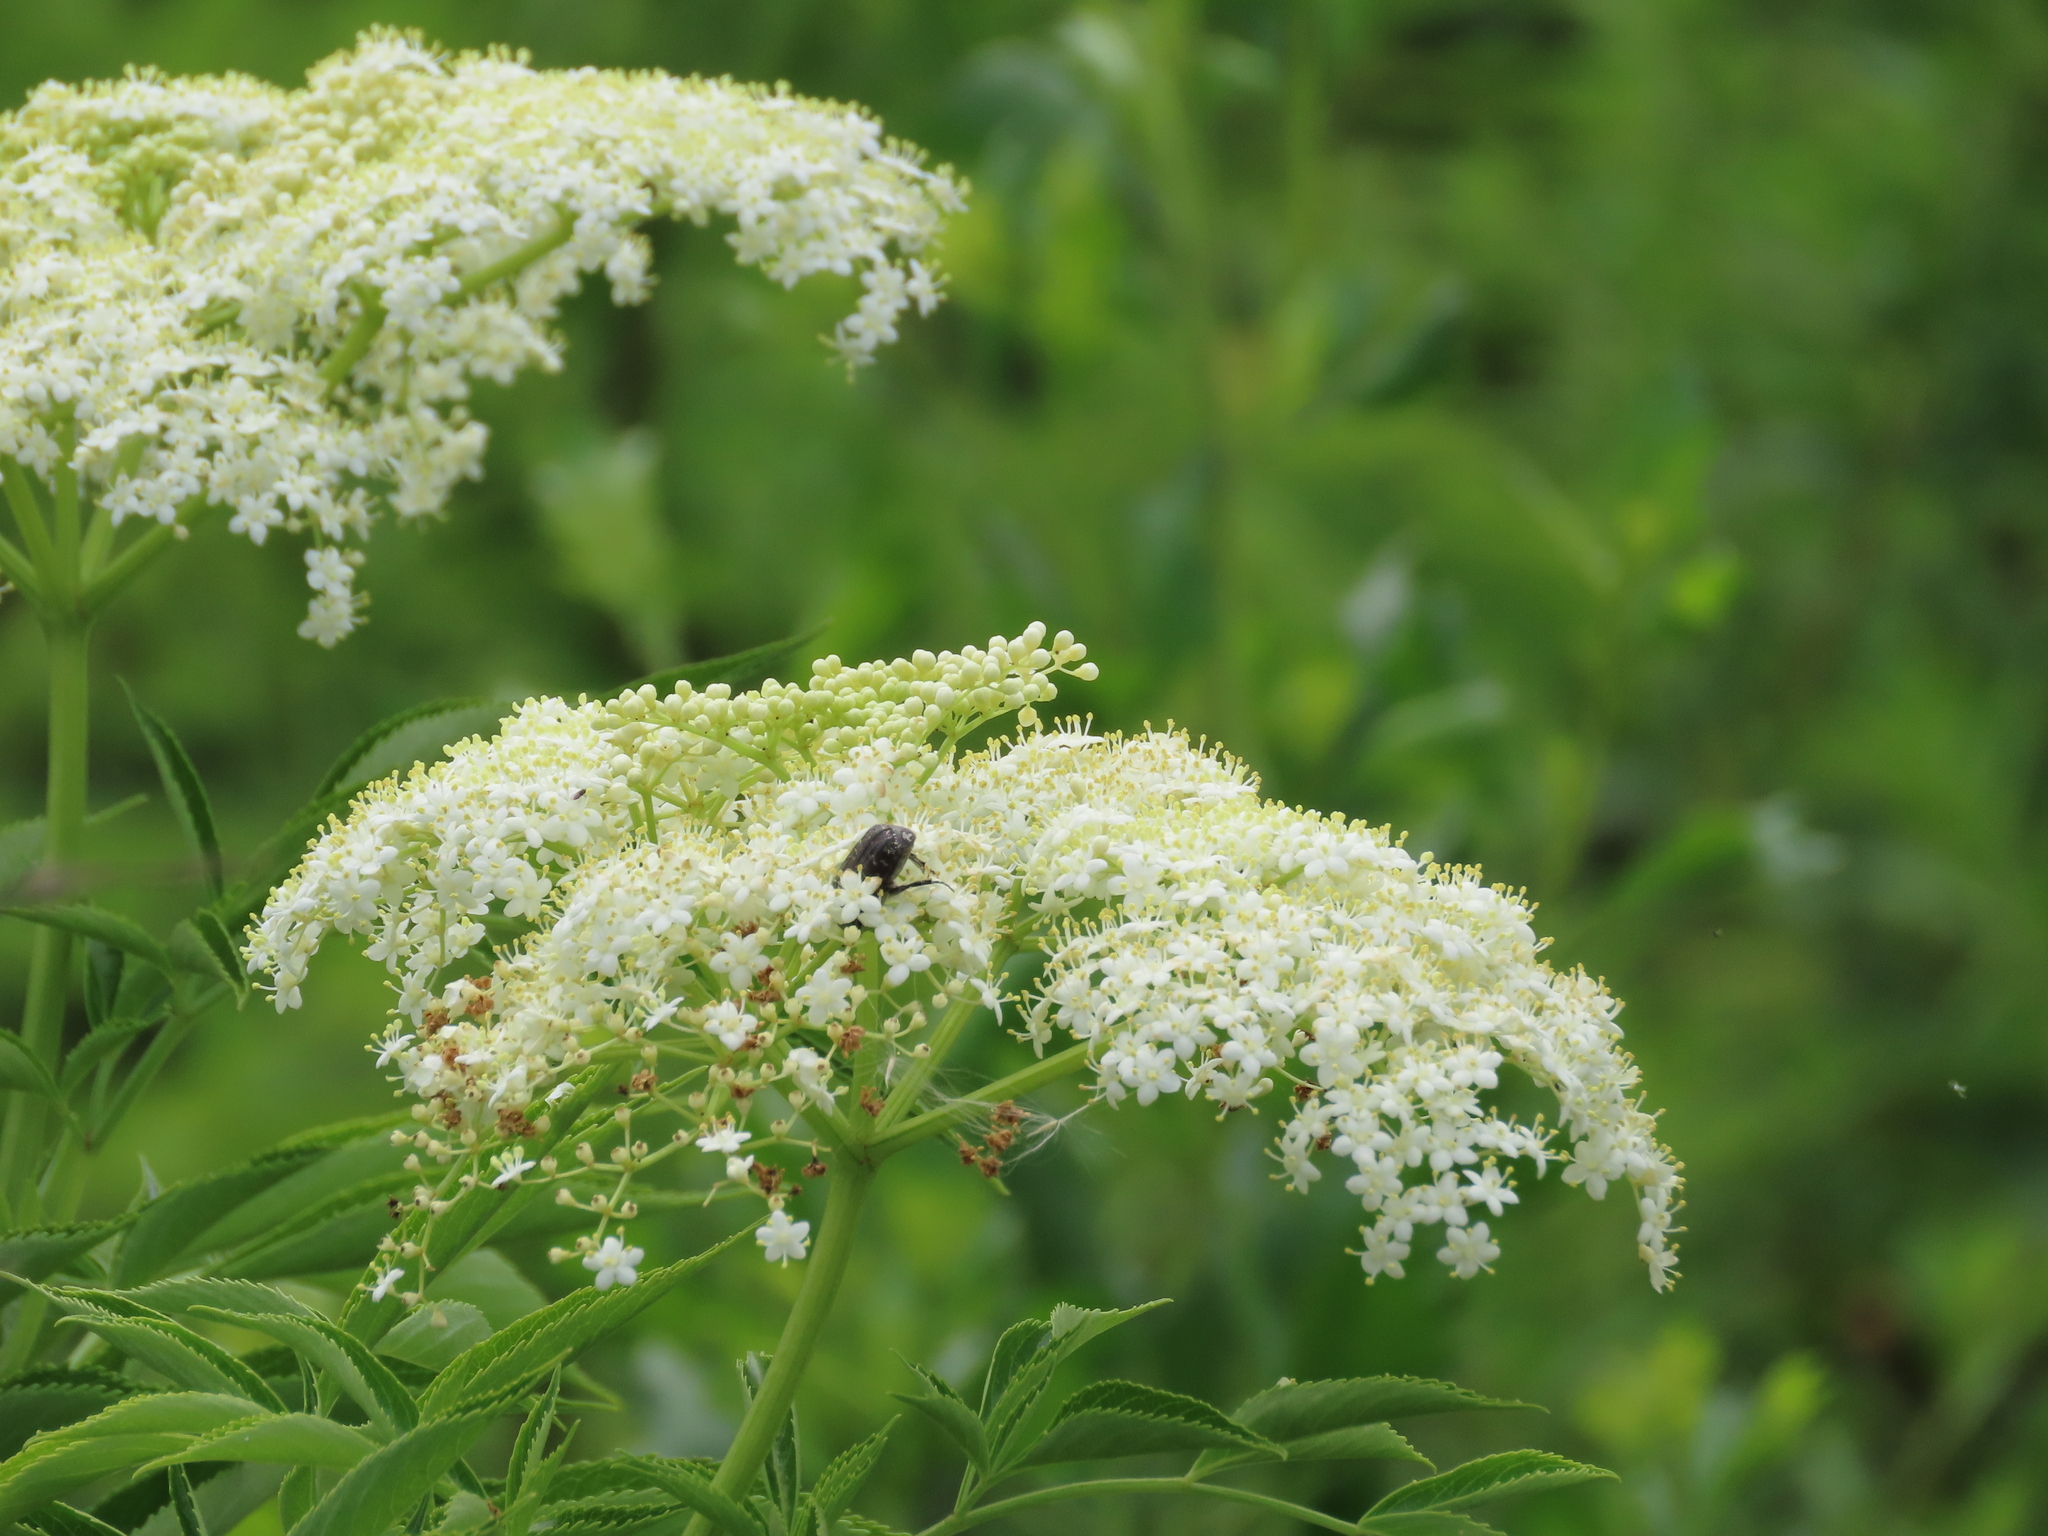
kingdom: Plantae
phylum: Tracheophyta
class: Magnoliopsida
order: Dipsacales
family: Viburnaceae
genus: Sambucus
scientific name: Sambucus canadensis
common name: American elder
